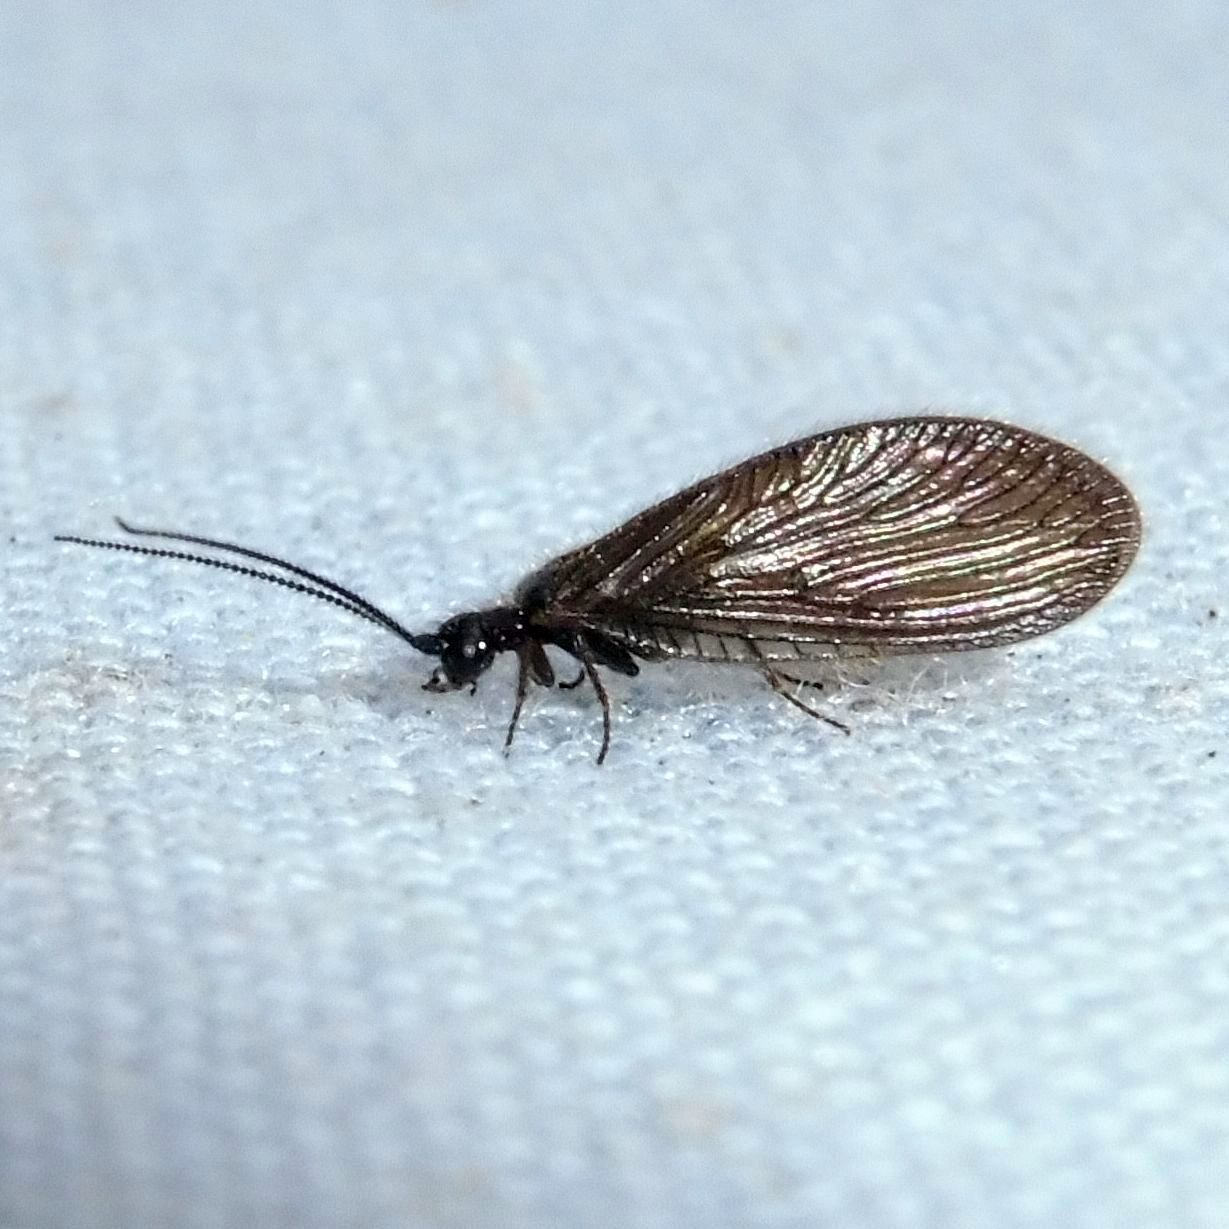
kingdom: Animalia
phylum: Arthropoda
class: Insecta
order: Neuroptera
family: Sisyridae
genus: Sisyra
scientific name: Sisyra nigra
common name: Black spongillafly
